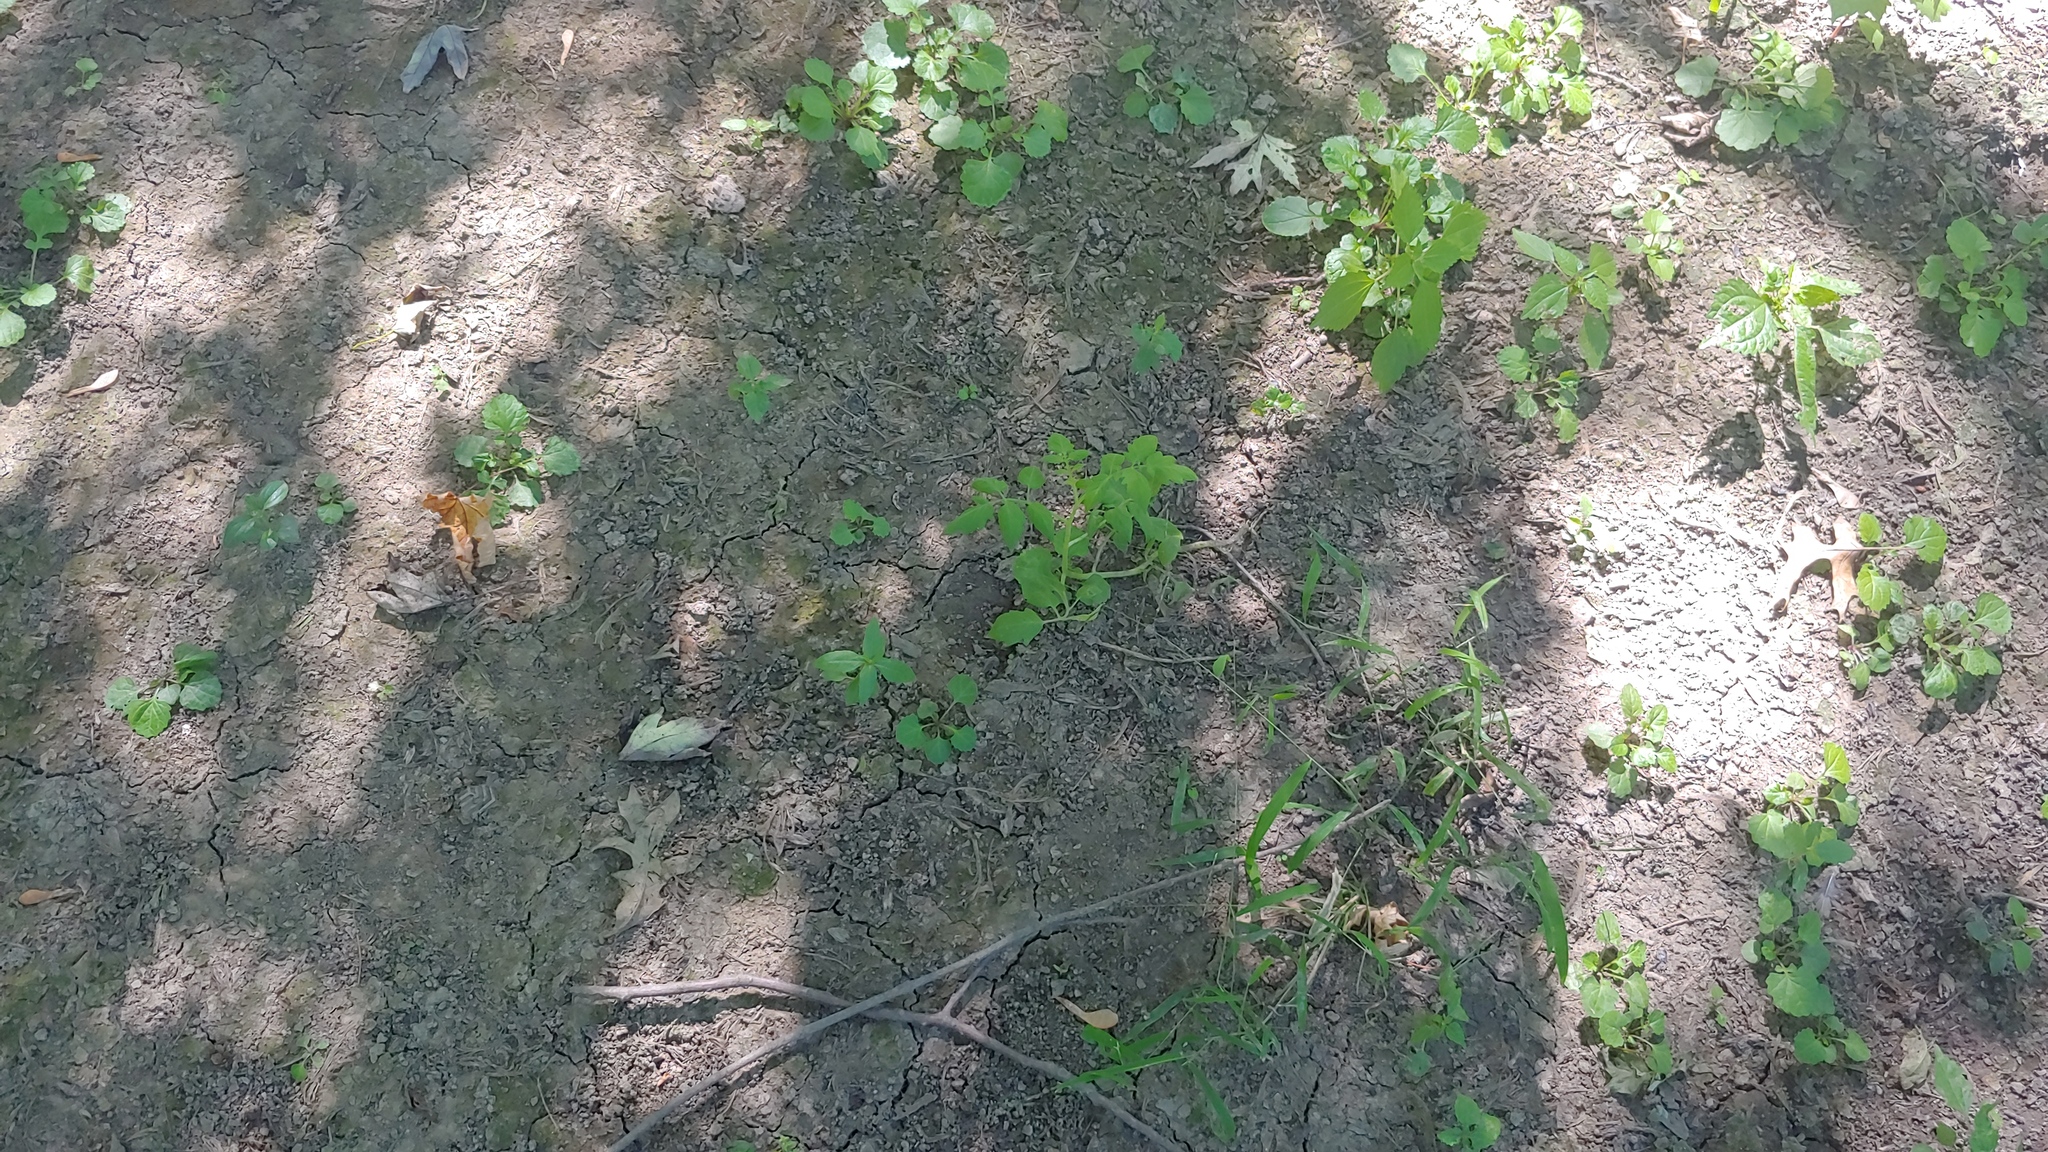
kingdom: Plantae
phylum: Tracheophyta
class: Magnoliopsida
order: Solanales
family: Solanaceae
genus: Solanum
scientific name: Solanum lycopersicum
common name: Garden tomato
